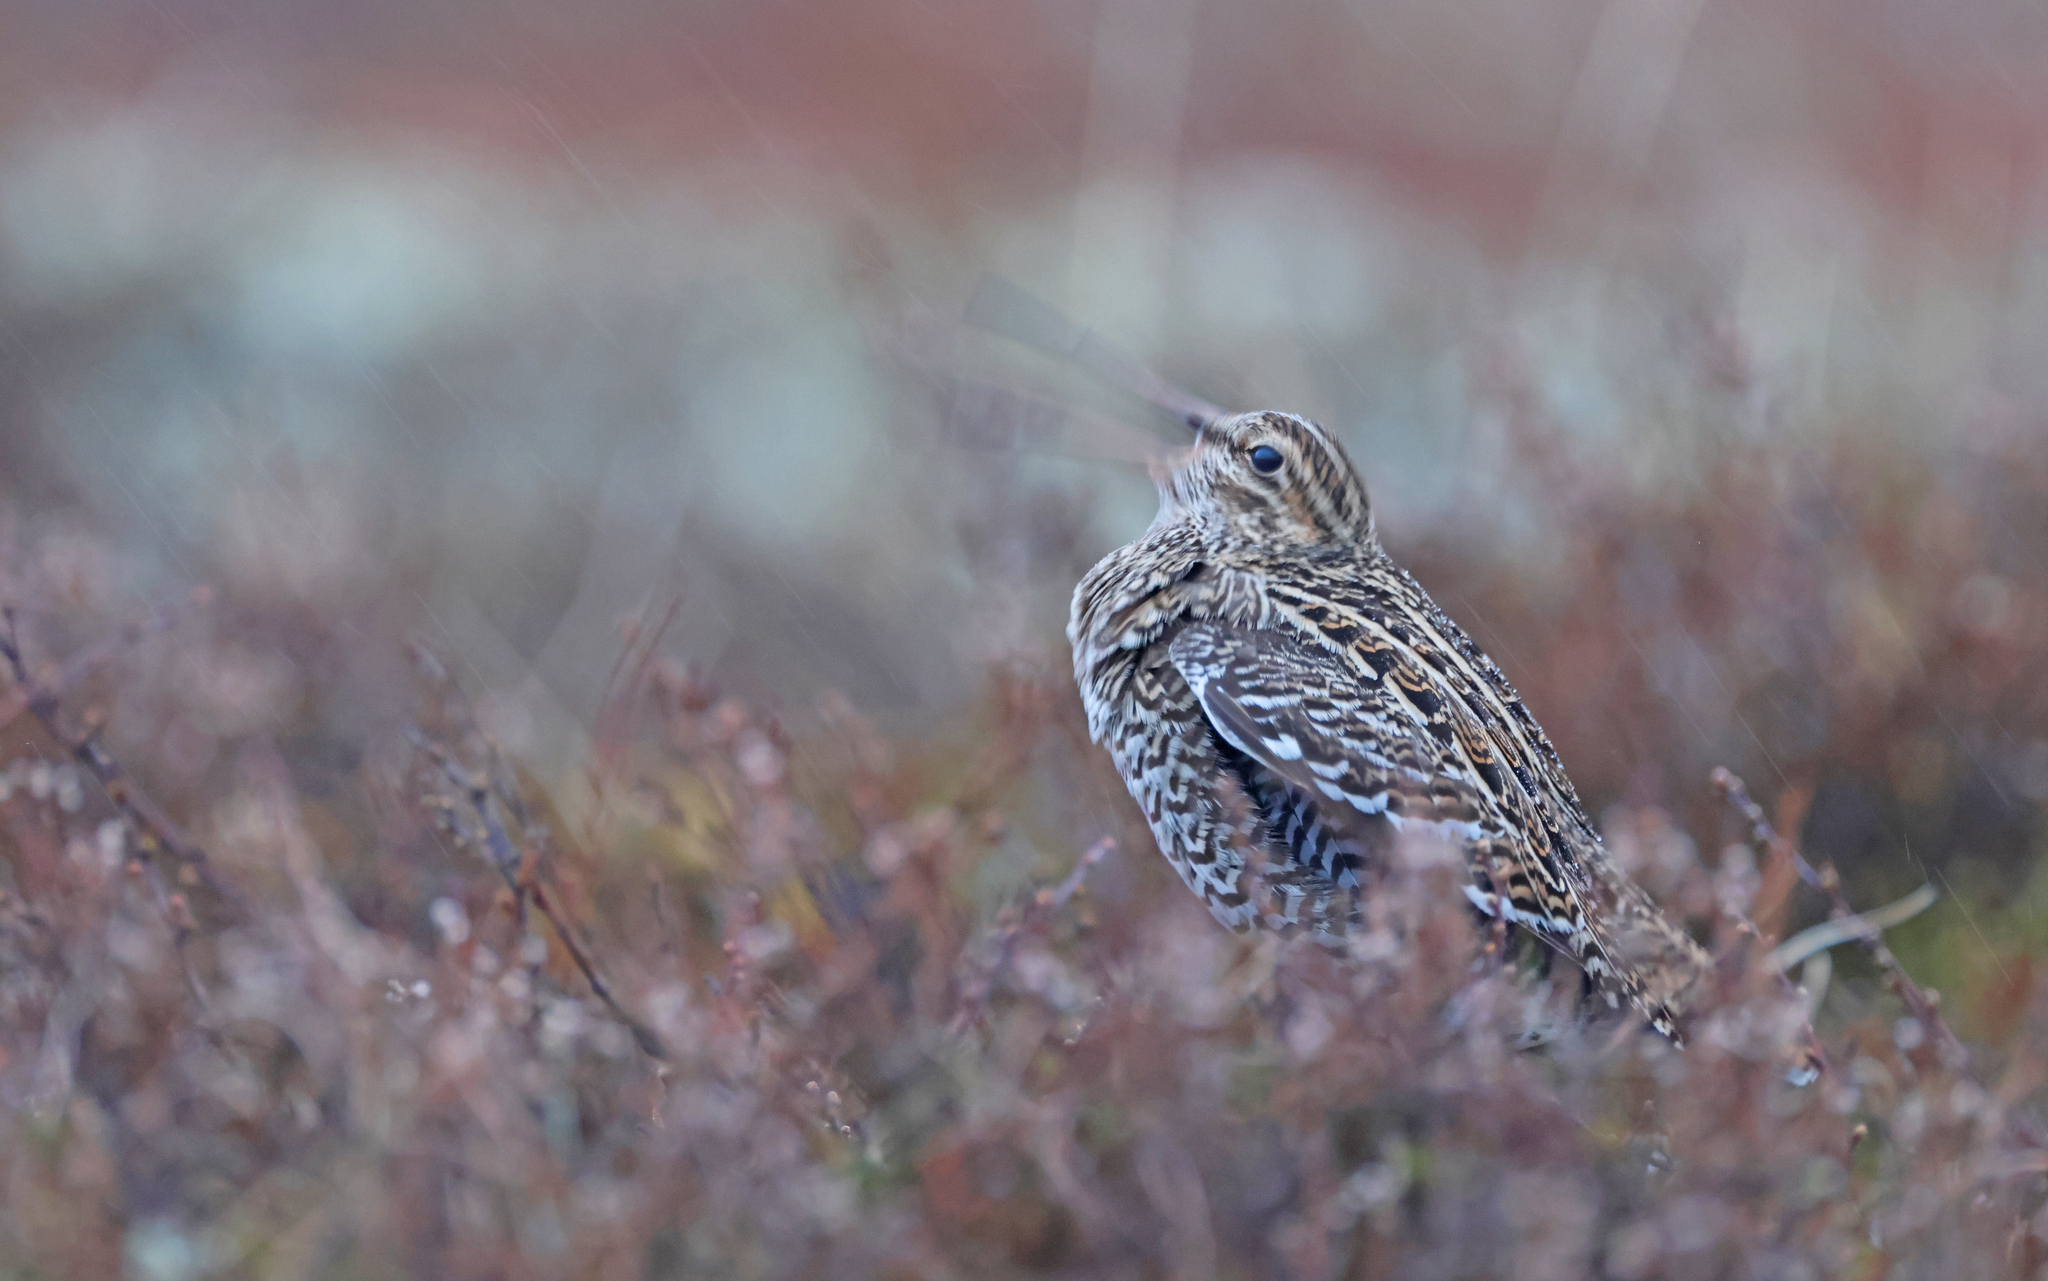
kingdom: Animalia
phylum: Chordata
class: Aves
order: Charadriiformes
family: Scolopacidae
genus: Gallinago
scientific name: Gallinago media
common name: Great snipe
